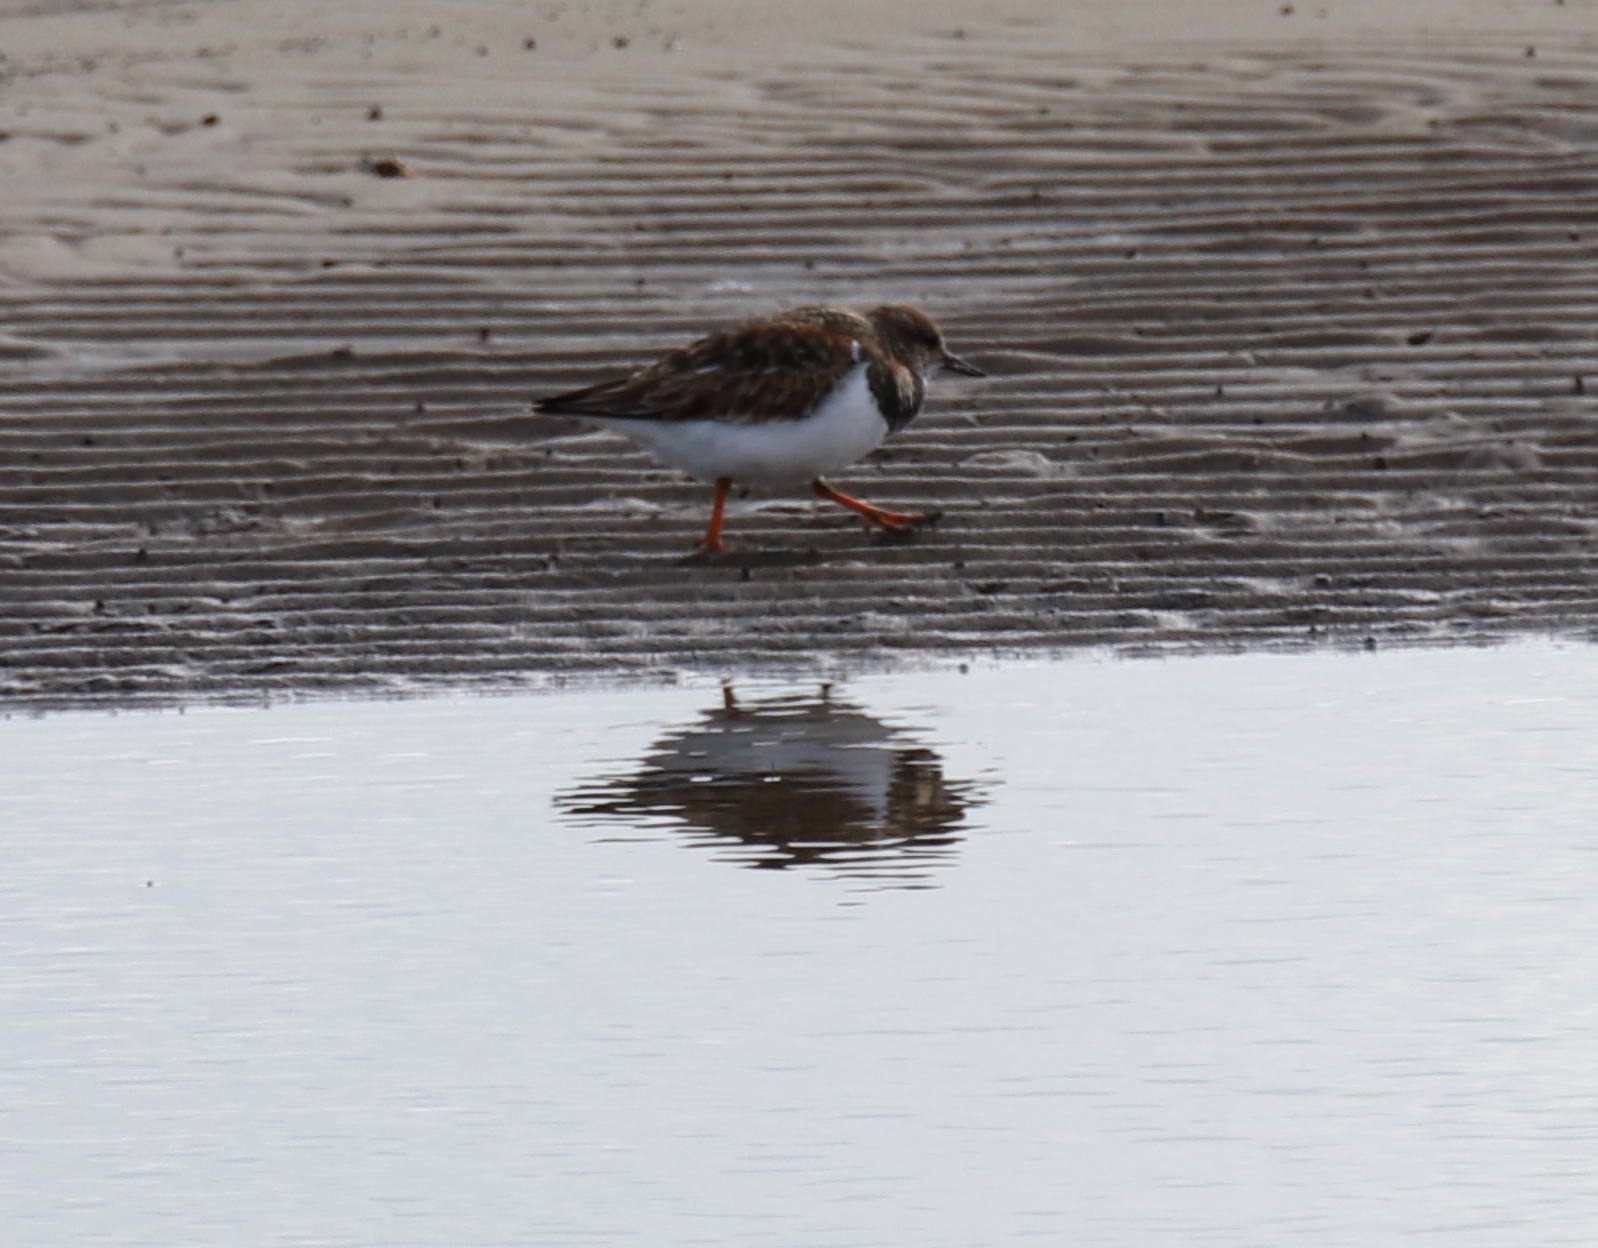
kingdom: Animalia
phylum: Chordata
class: Aves
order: Charadriiformes
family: Scolopacidae
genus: Arenaria
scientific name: Arenaria interpres
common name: Ruddy turnstone
